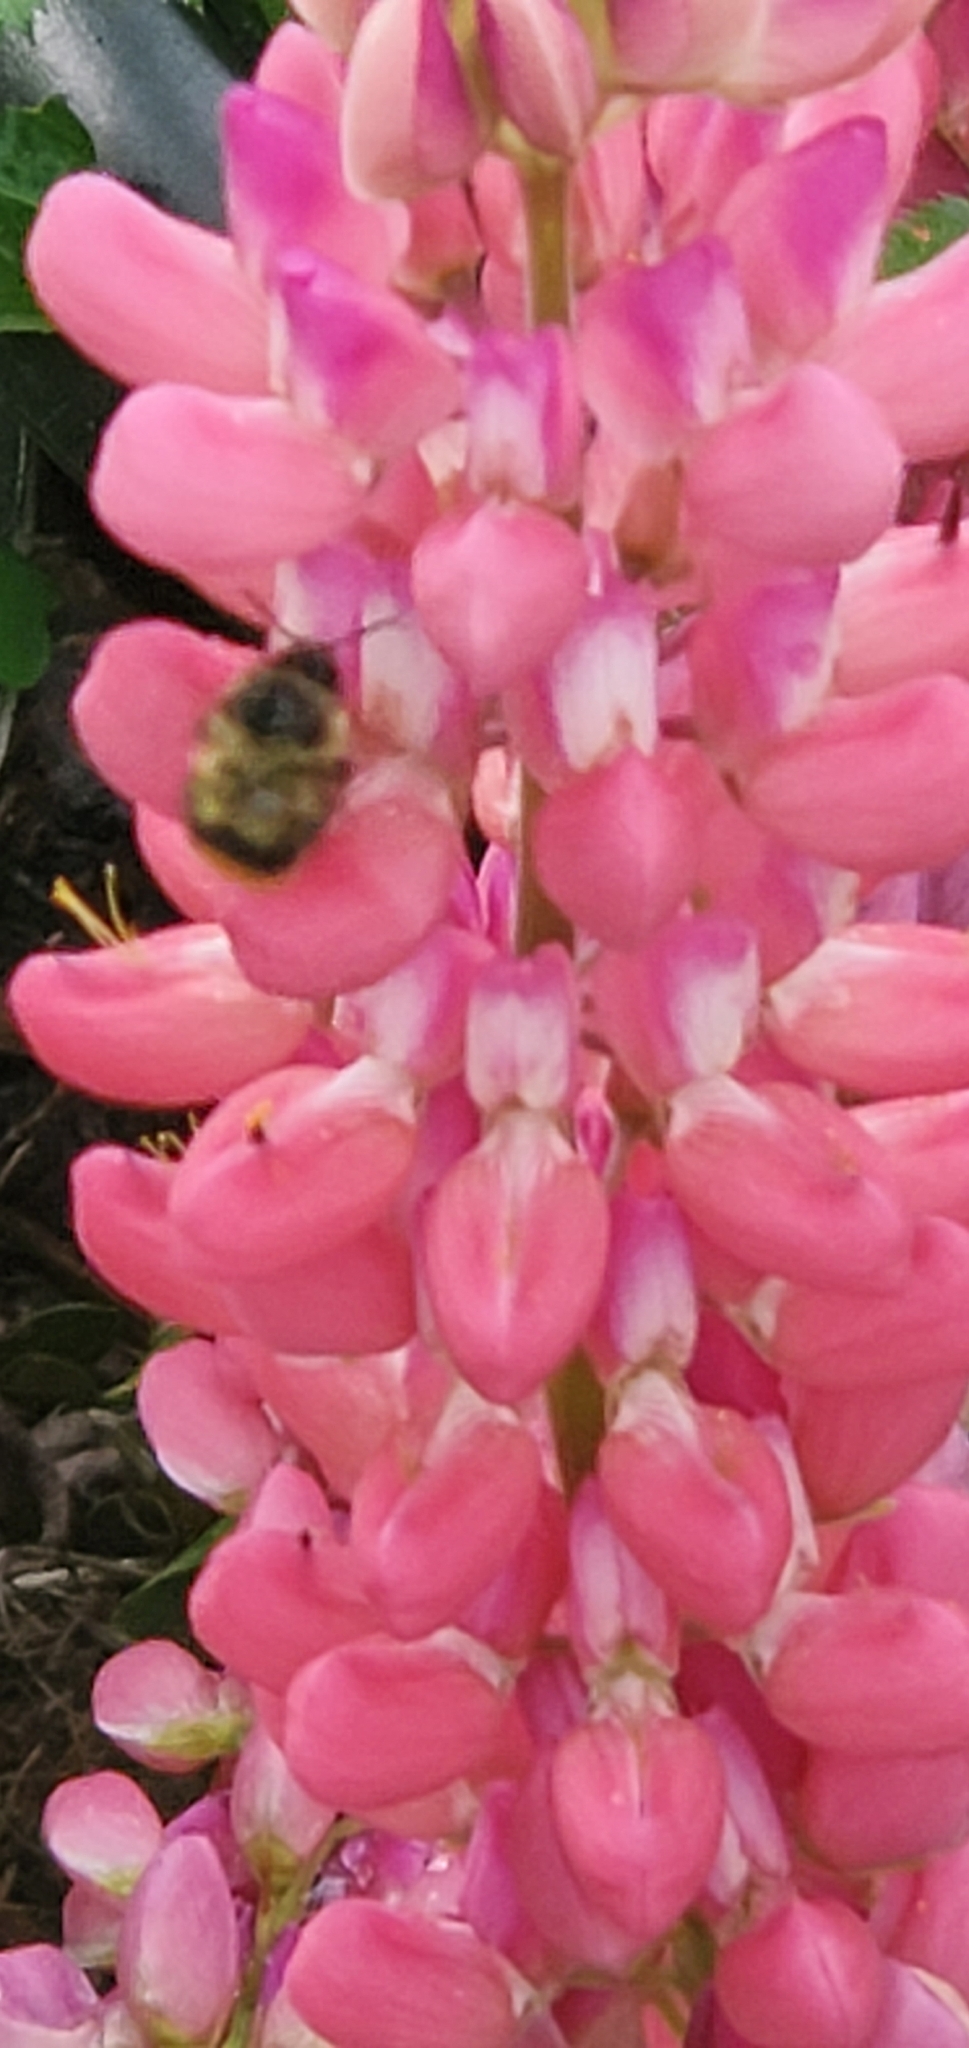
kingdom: Animalia
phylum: Arthropoda
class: Insecta
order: Hymenoptera
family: Apidae
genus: Bombus
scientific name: Bombus mixtus
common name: Fuzzy-horned bumble bee
